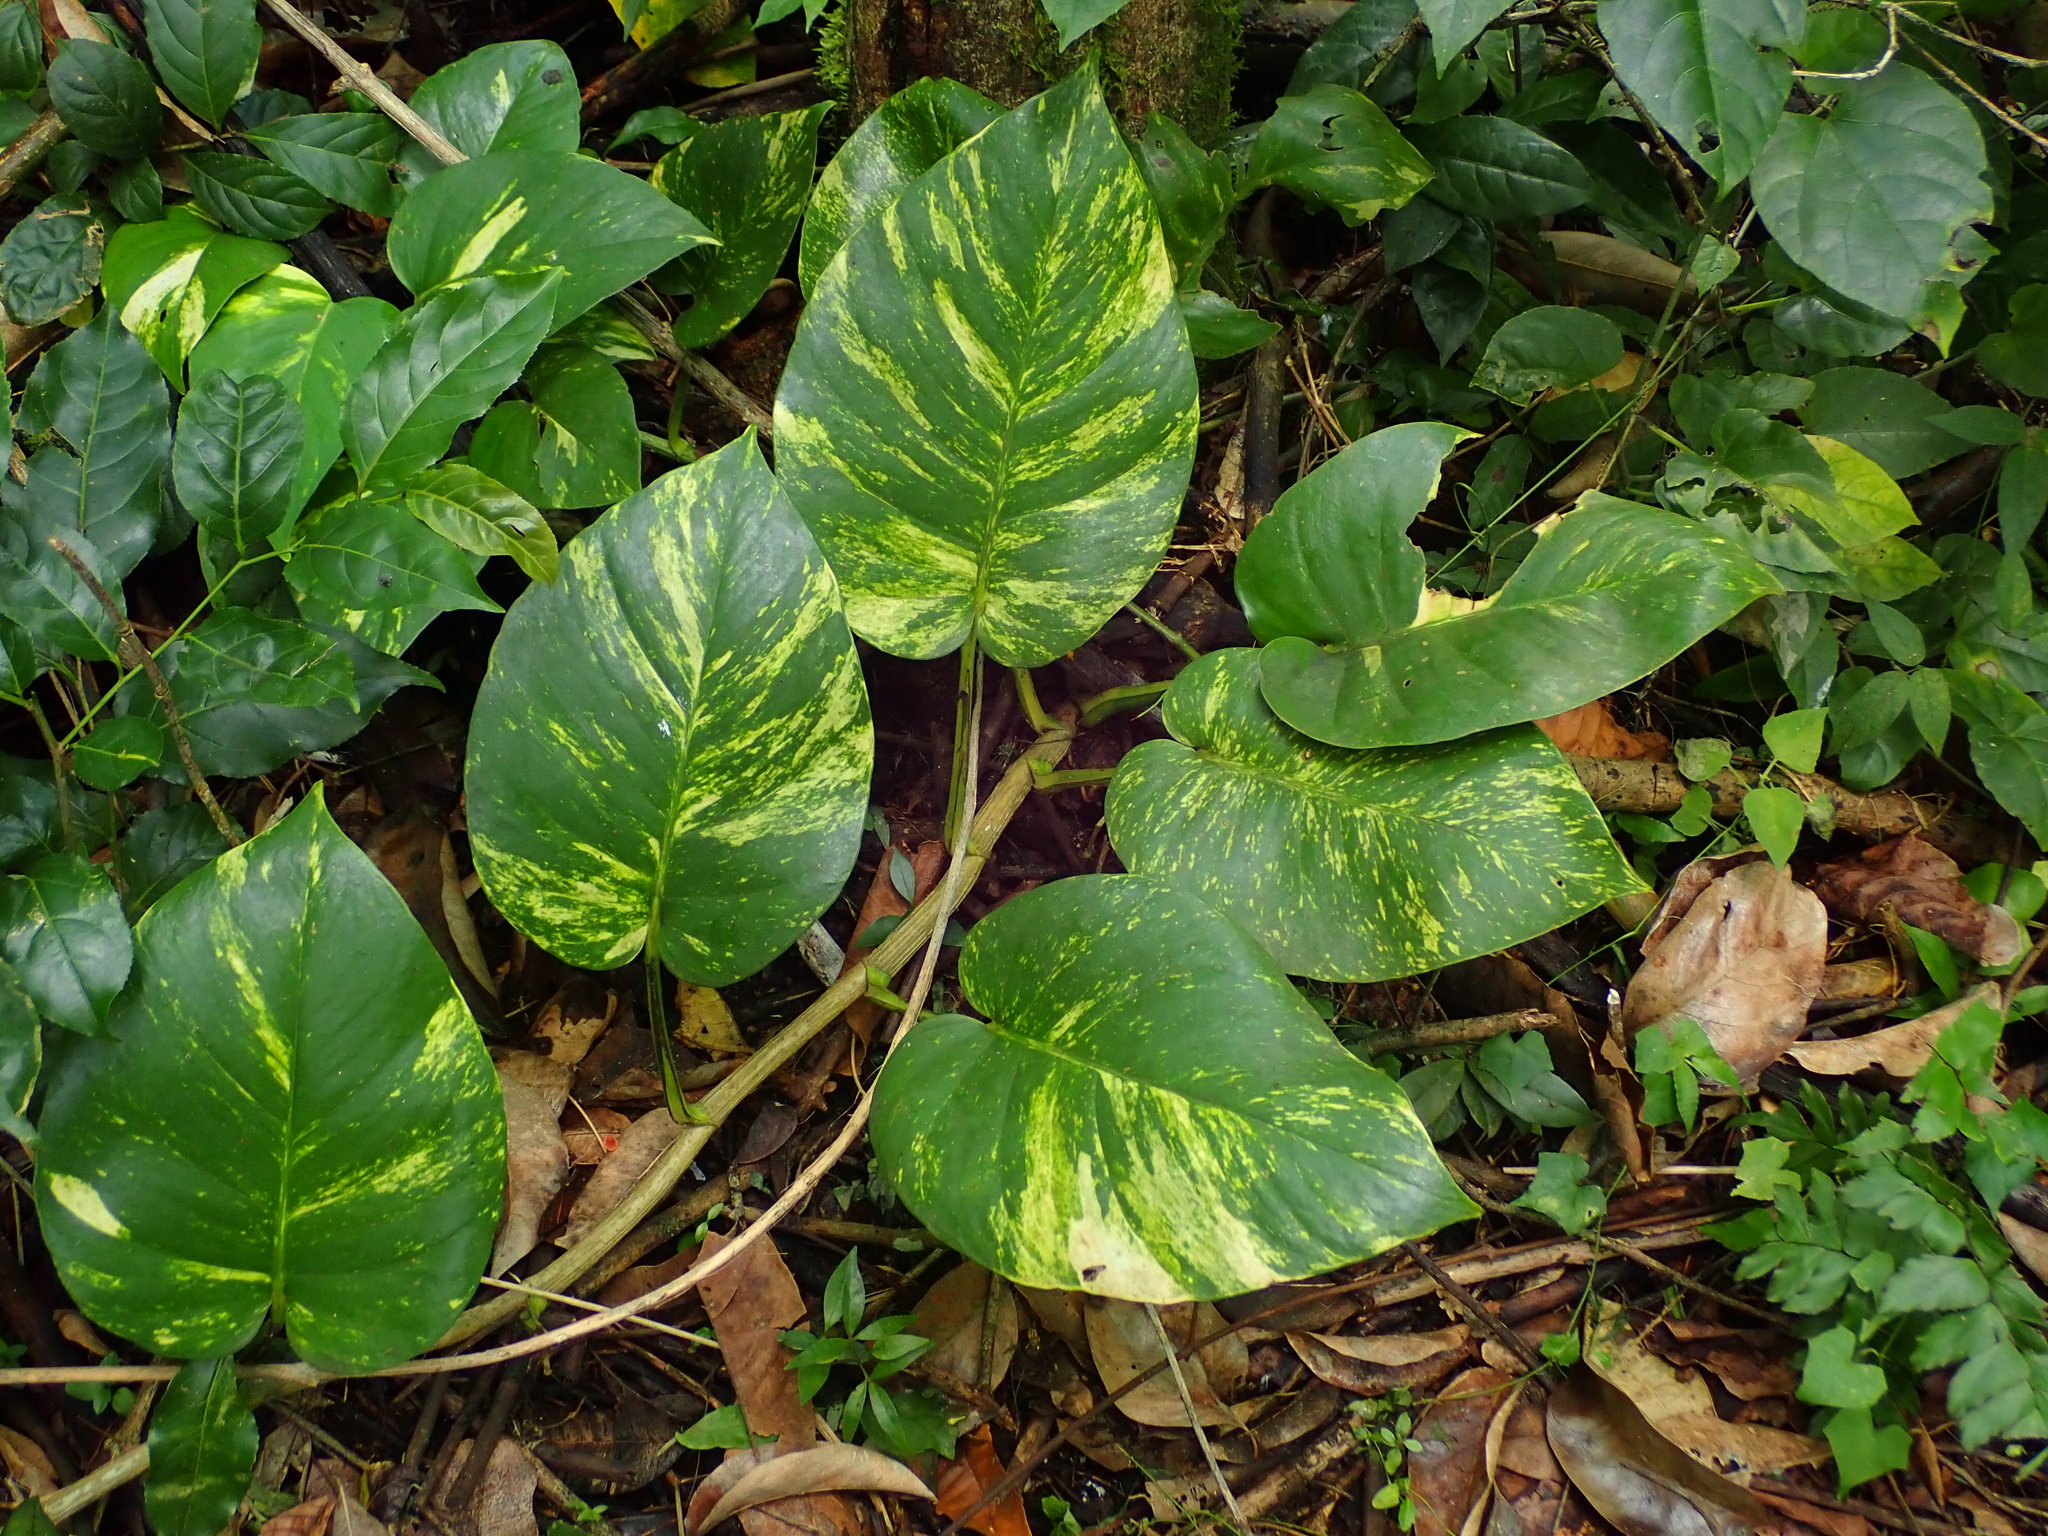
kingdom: Plantae
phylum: Tracheophyta
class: Liliopsida
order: Alismatales
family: Araceae
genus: Epipremnum
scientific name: Epipremnum aureum
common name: Golden hunter's-robe
